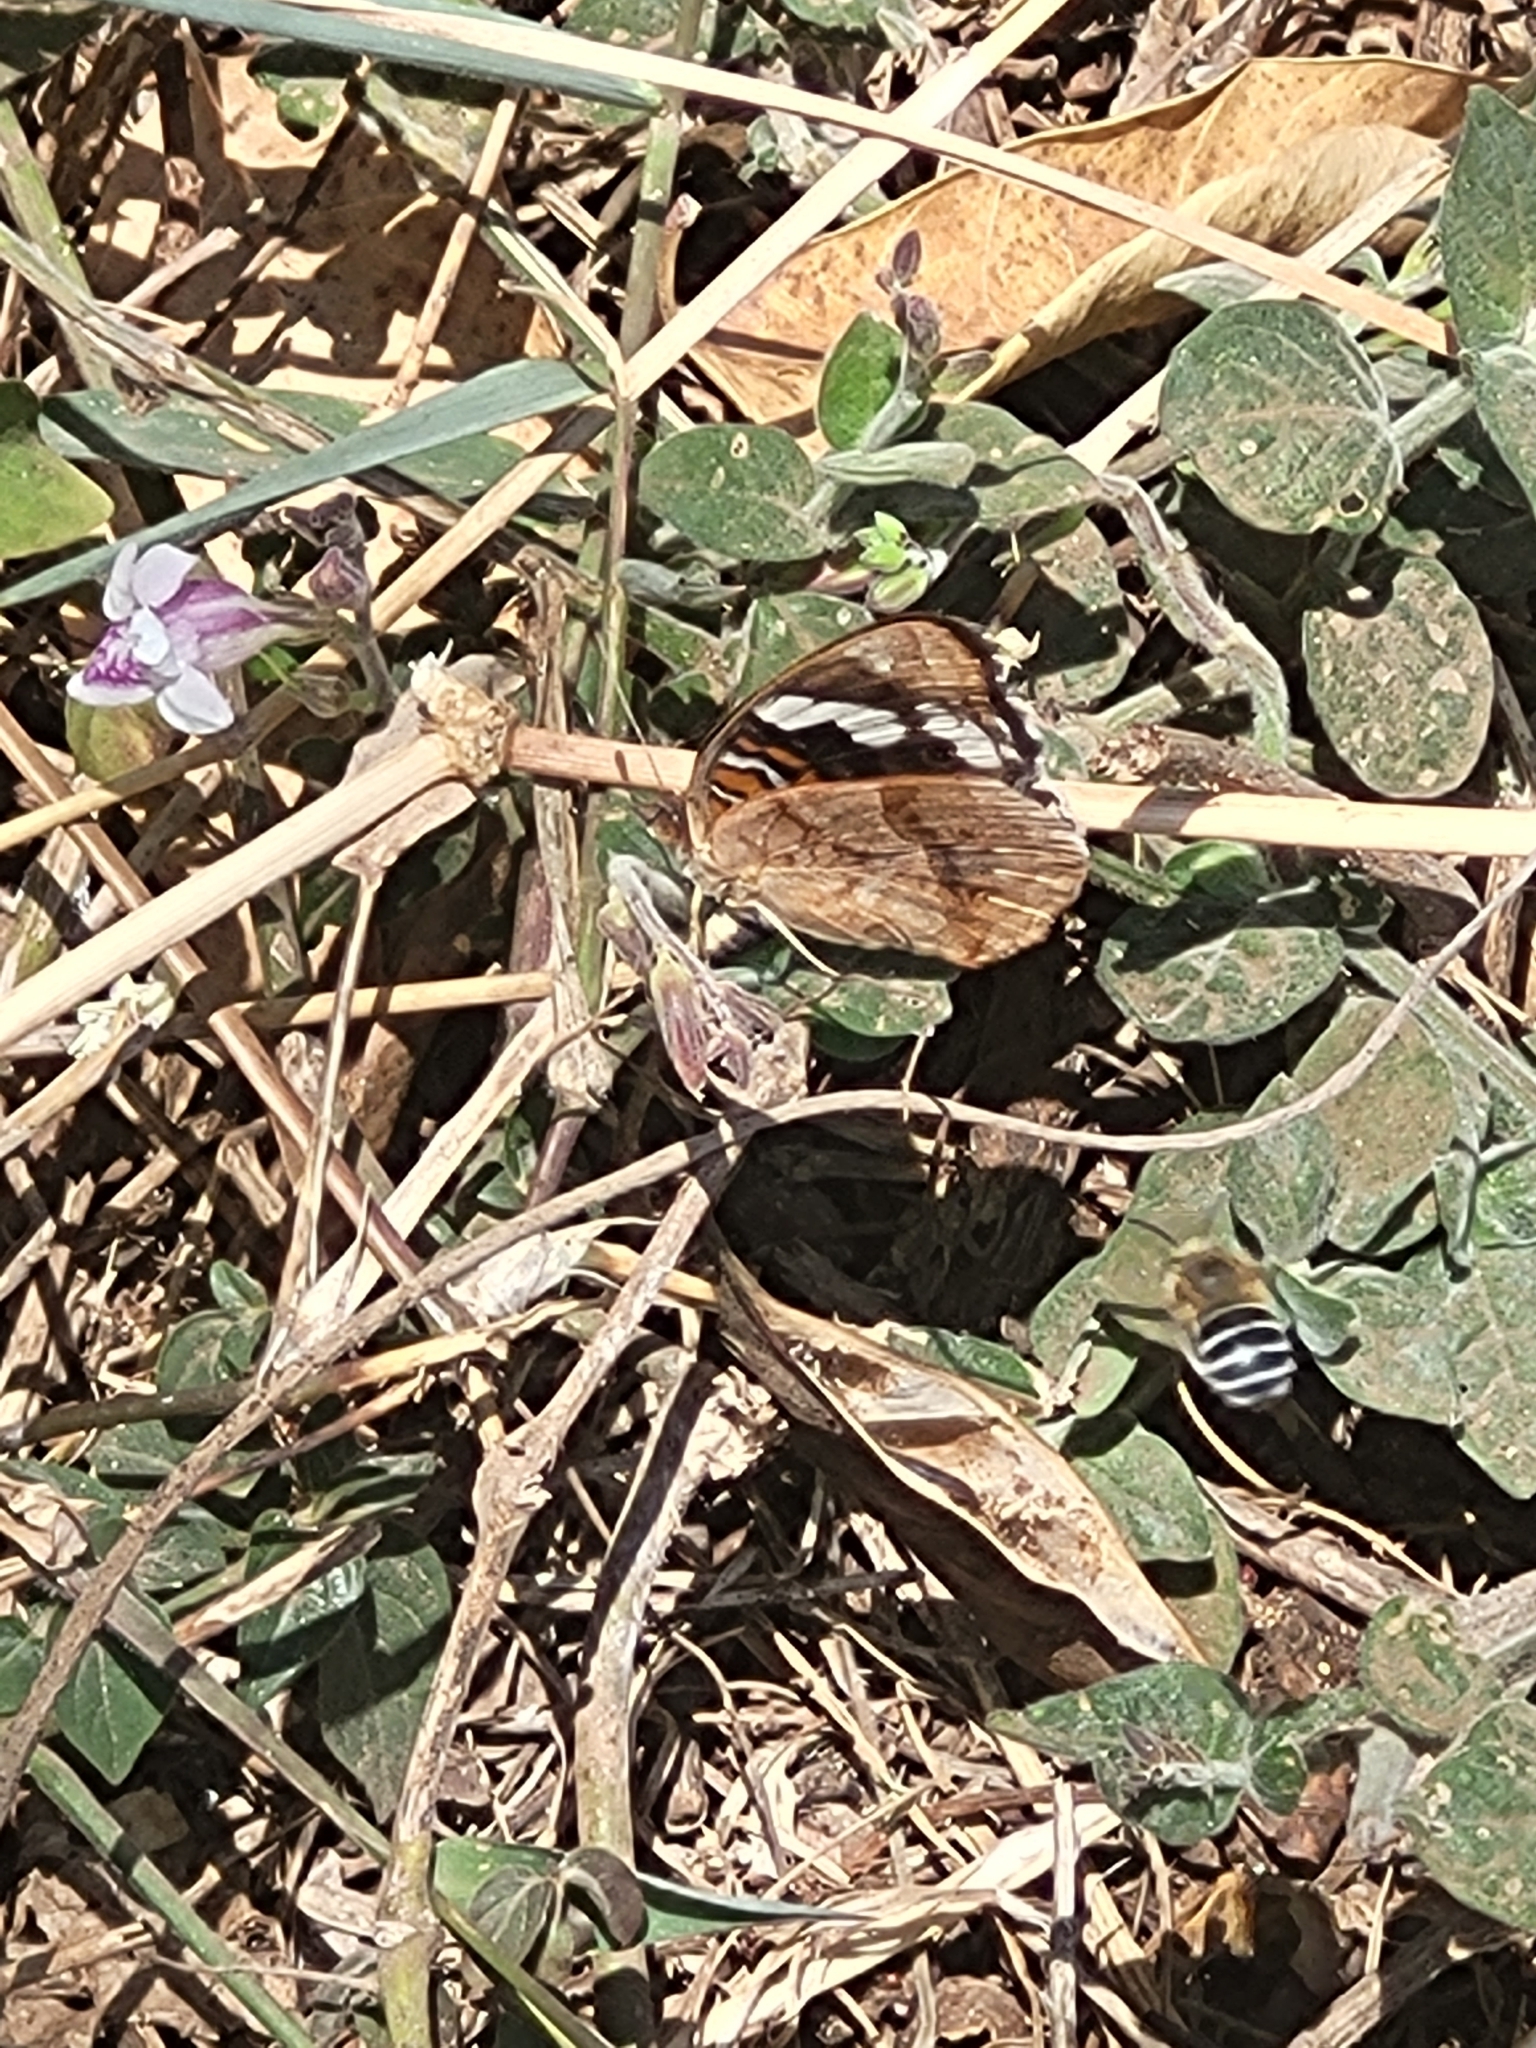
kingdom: Animalia
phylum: Arthropoda
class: Insecta
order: Lepidoptera
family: Nymphalidae
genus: Junonia
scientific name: Junonia oenone
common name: Dark blue pansy
